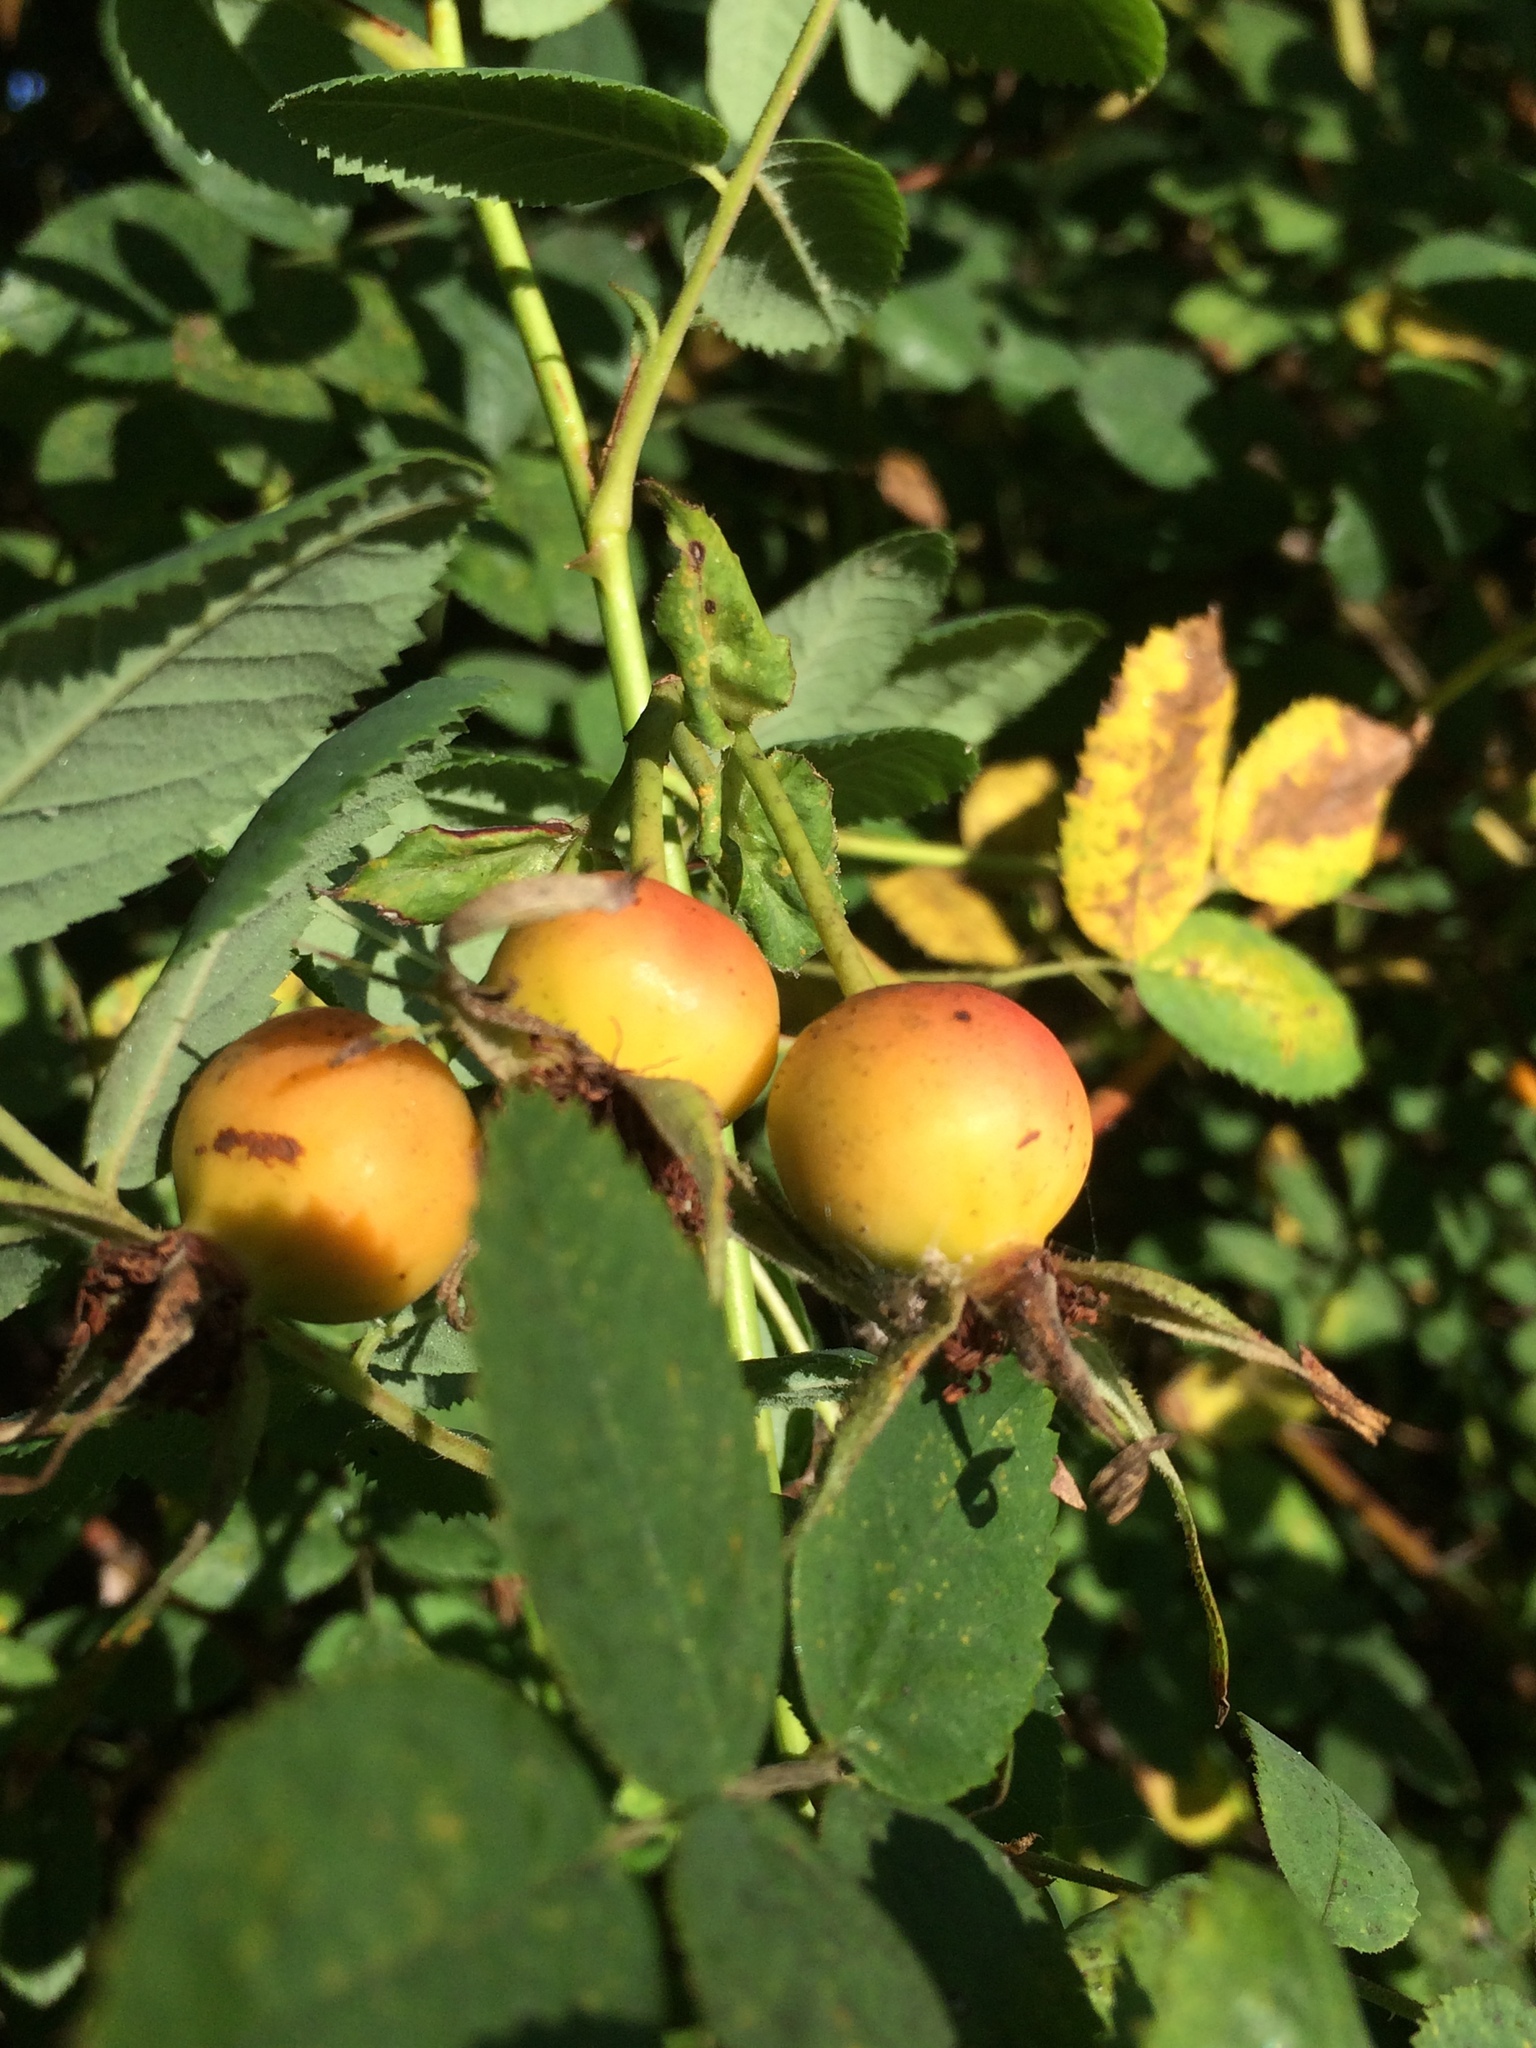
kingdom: Plantae
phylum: Tracheophyta
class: Magnoliopsida
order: Rosales
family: Rosaceae
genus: Rosa
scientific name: Rosa nutkana
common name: Nootka rose
